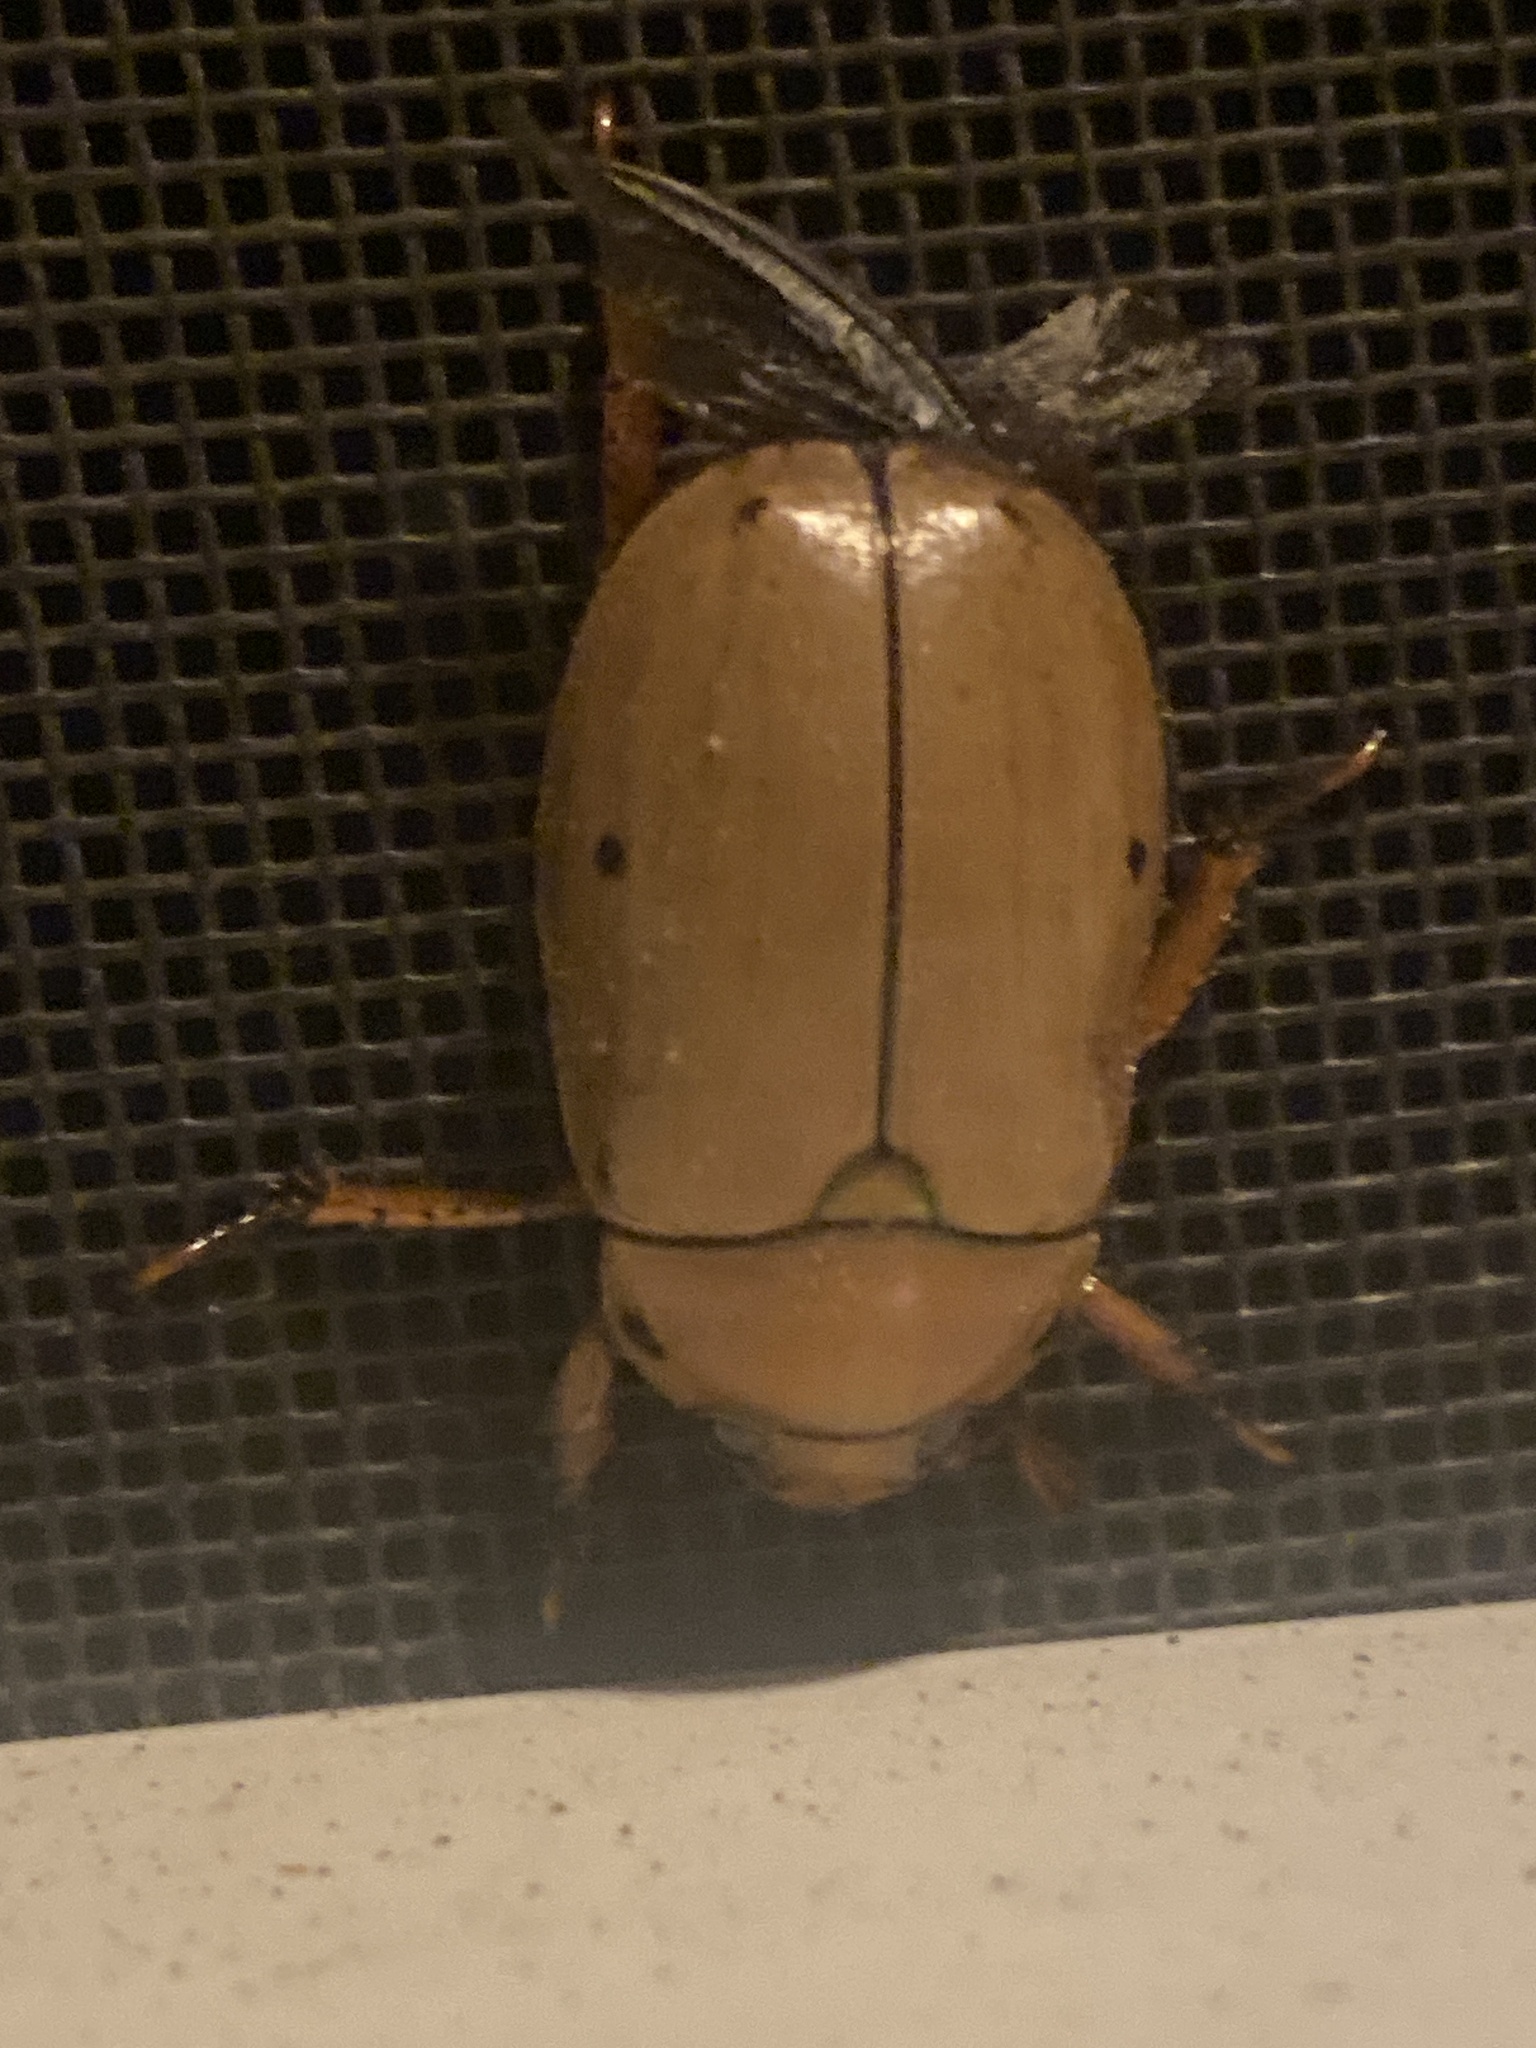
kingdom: Animalia
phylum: Arthropoda
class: Insecta
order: Coleoptera
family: Scarabaeidae
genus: Pelidnota
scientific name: Pelidnota punctata
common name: Grapevine beetle
